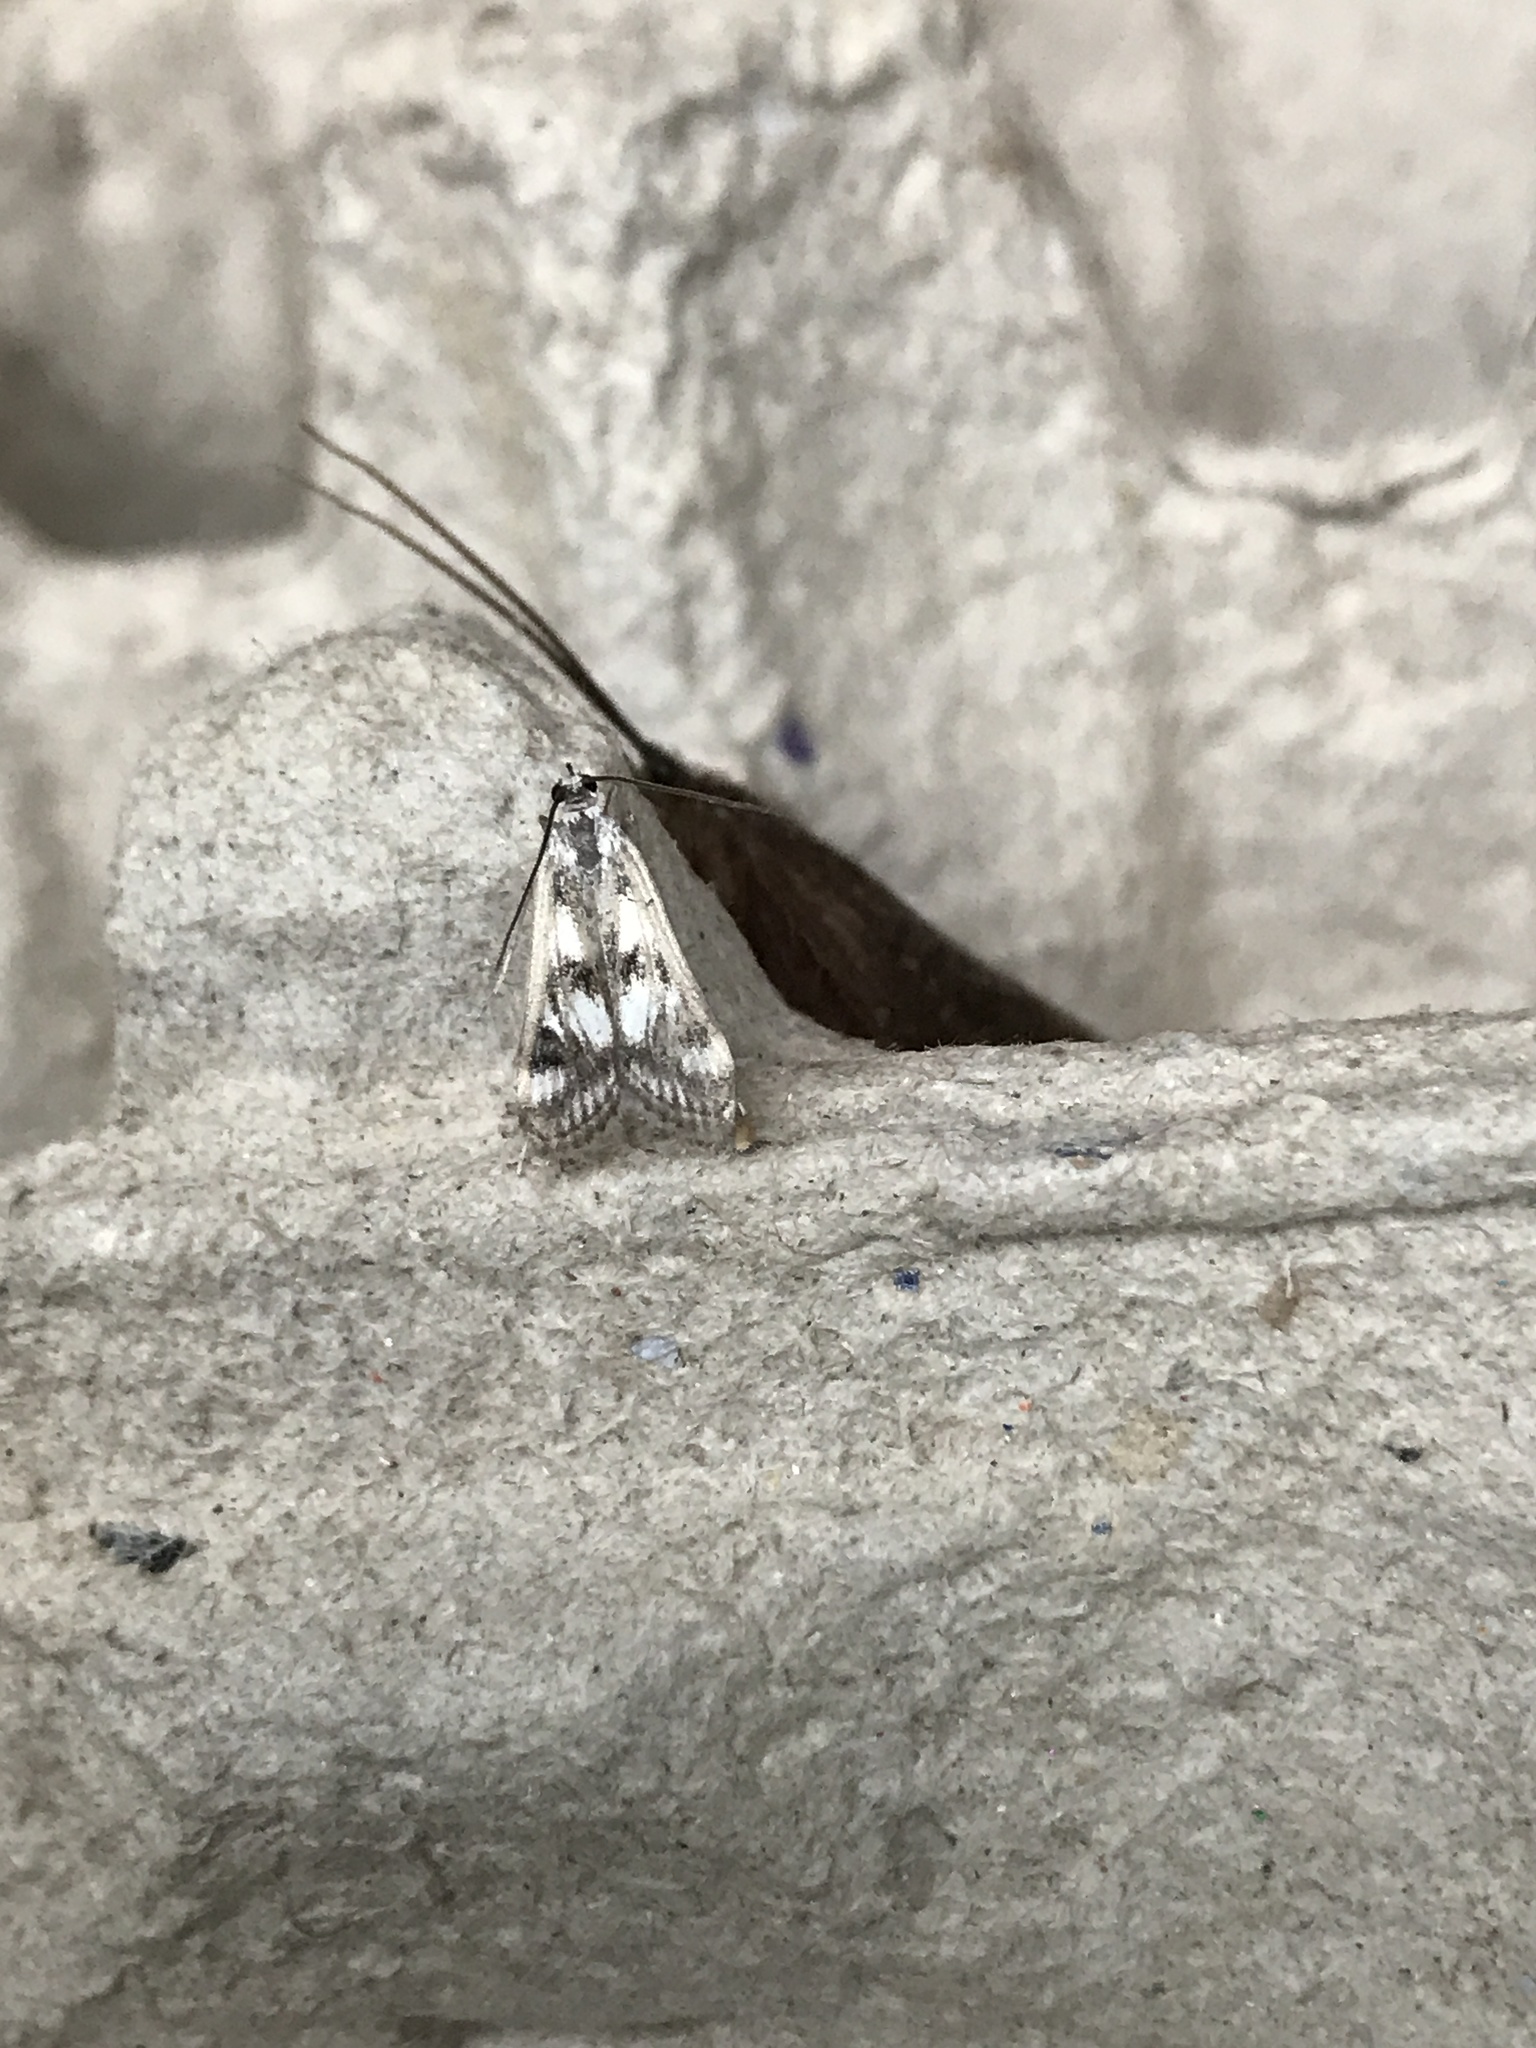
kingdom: Animalia
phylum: Arthropoda
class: Insecta
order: Lepidoptera
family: Crambidae
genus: Parapoynx
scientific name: Parapoynx maculalis
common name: Polymorphic pondweed moth
